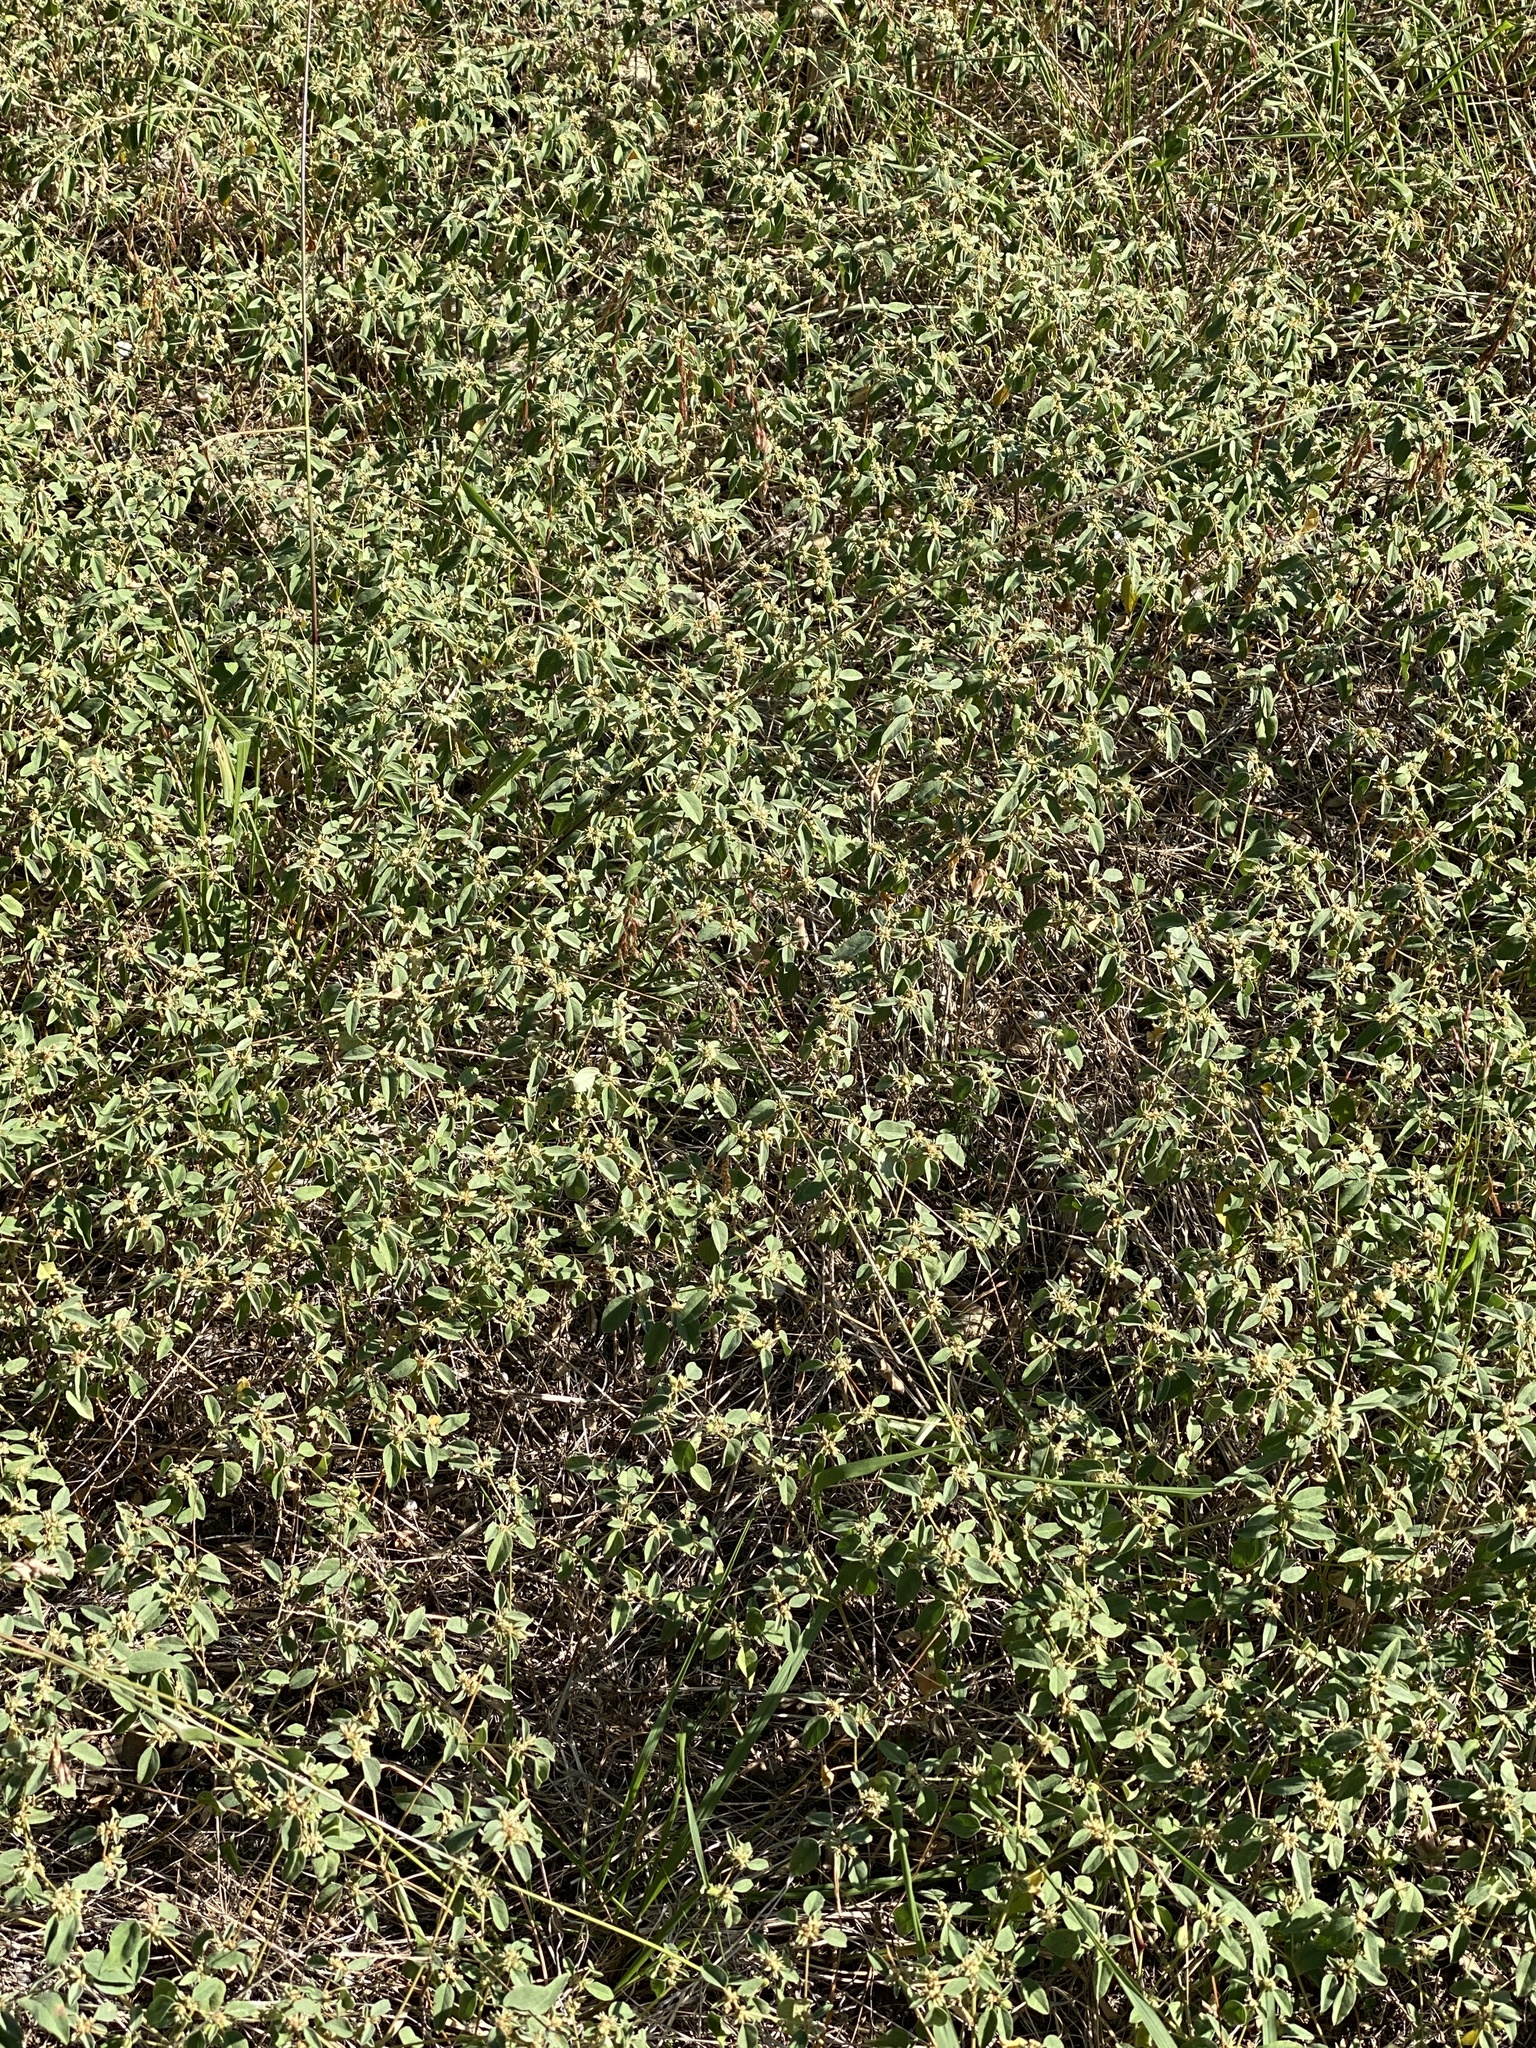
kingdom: Plantae
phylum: Tracheophyta
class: Magnoliopsida
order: Malpighiales
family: Euphorbiaceae
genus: Croton
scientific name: Croton monanthogynus
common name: One-seed croton
